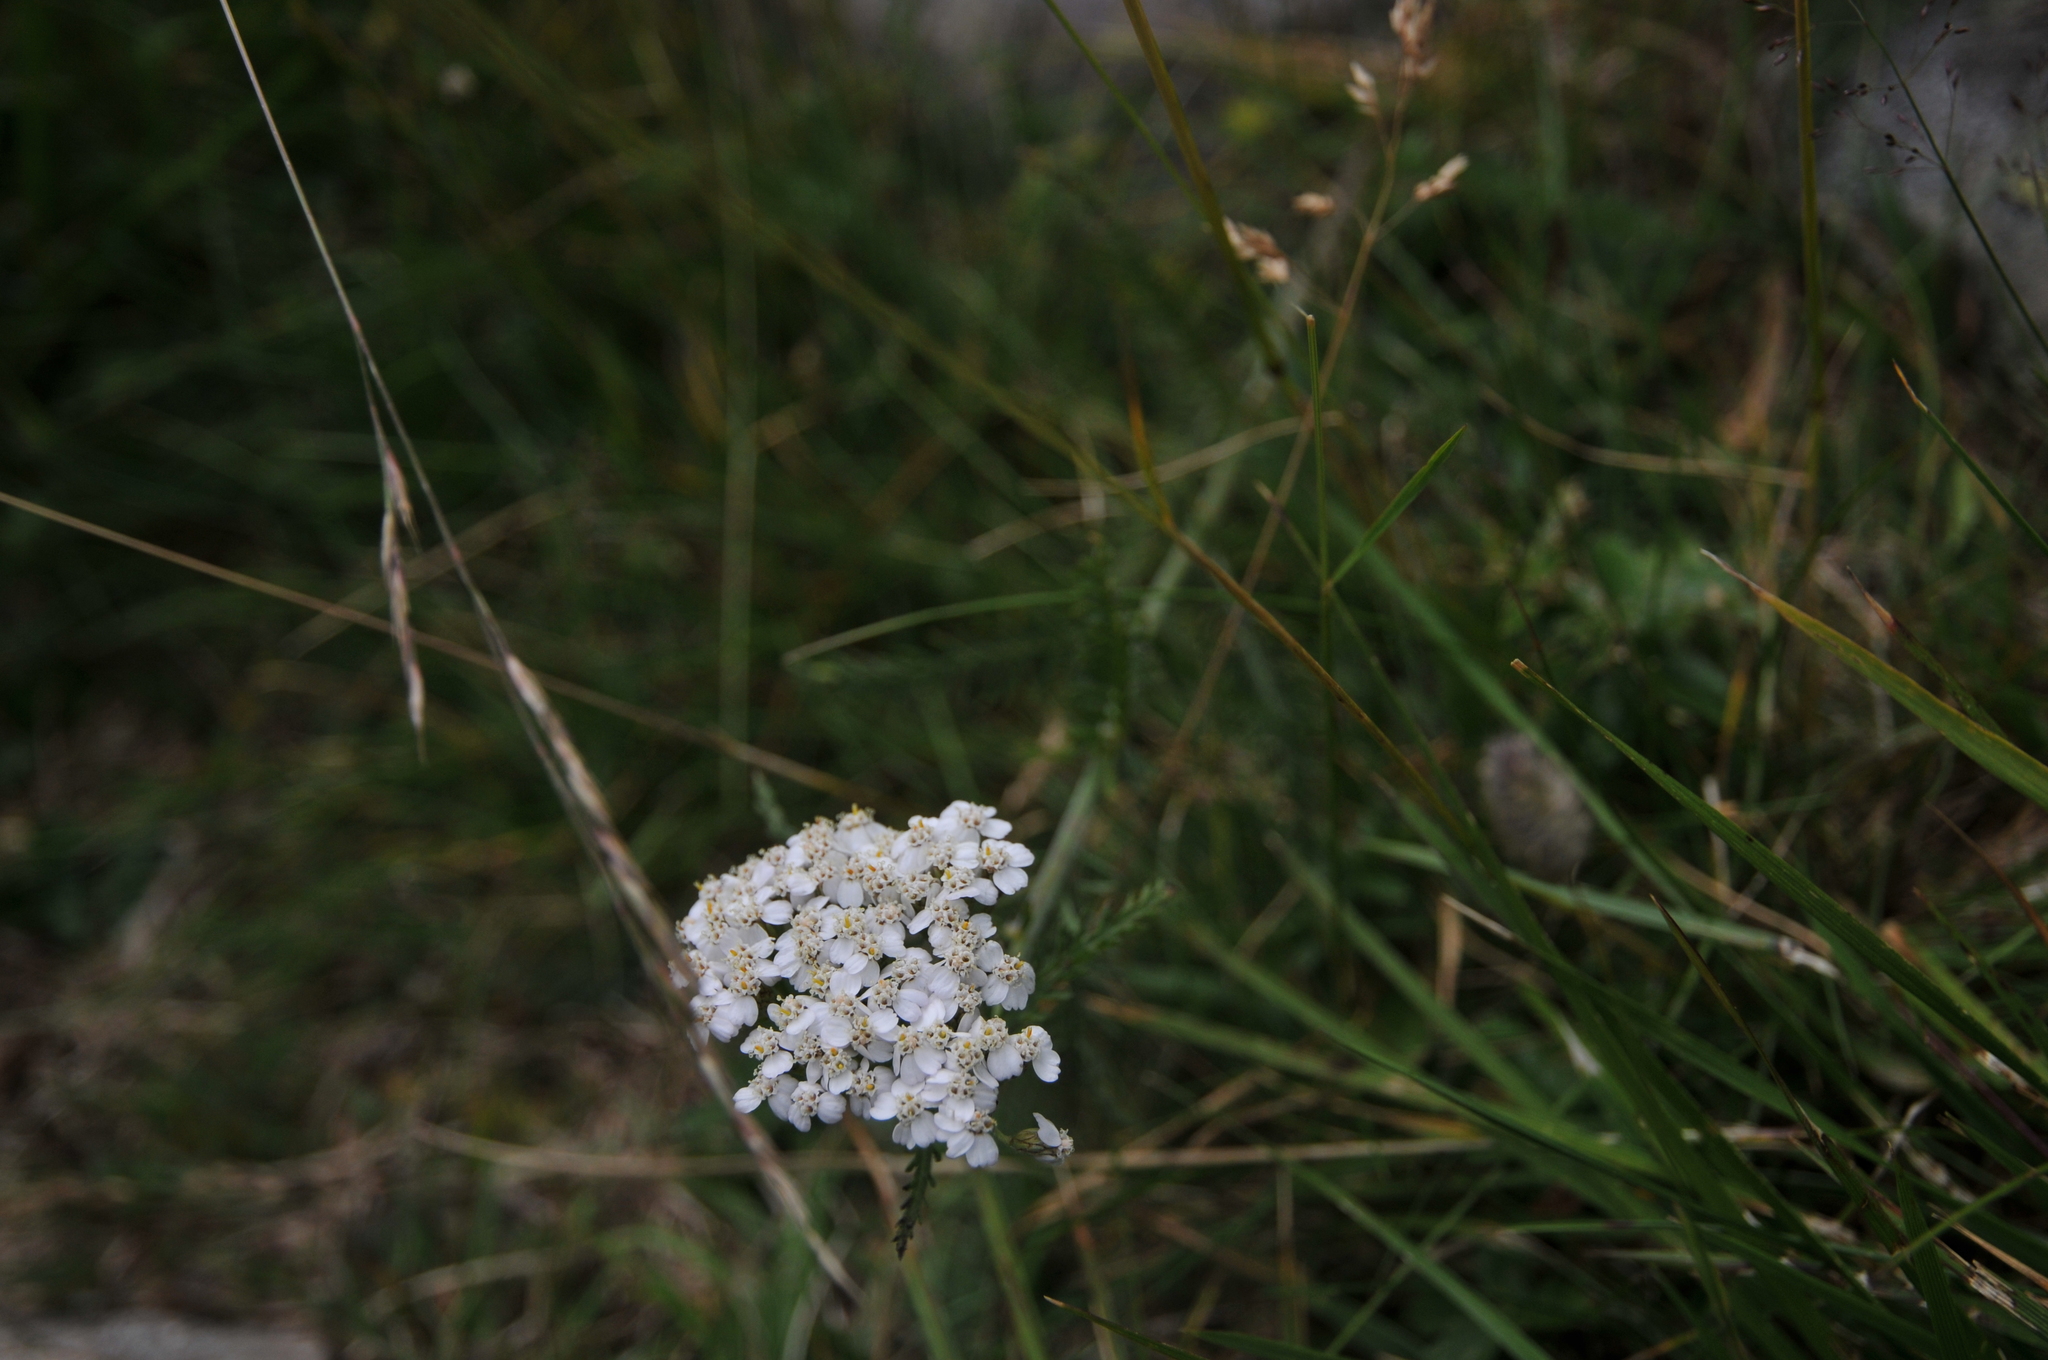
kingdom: Plantae
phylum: Tracheophyta
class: Magnoliopsida
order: Asterales
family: Asteraceae
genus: Achillea
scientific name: Achillea millefolium
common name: Yarrow
